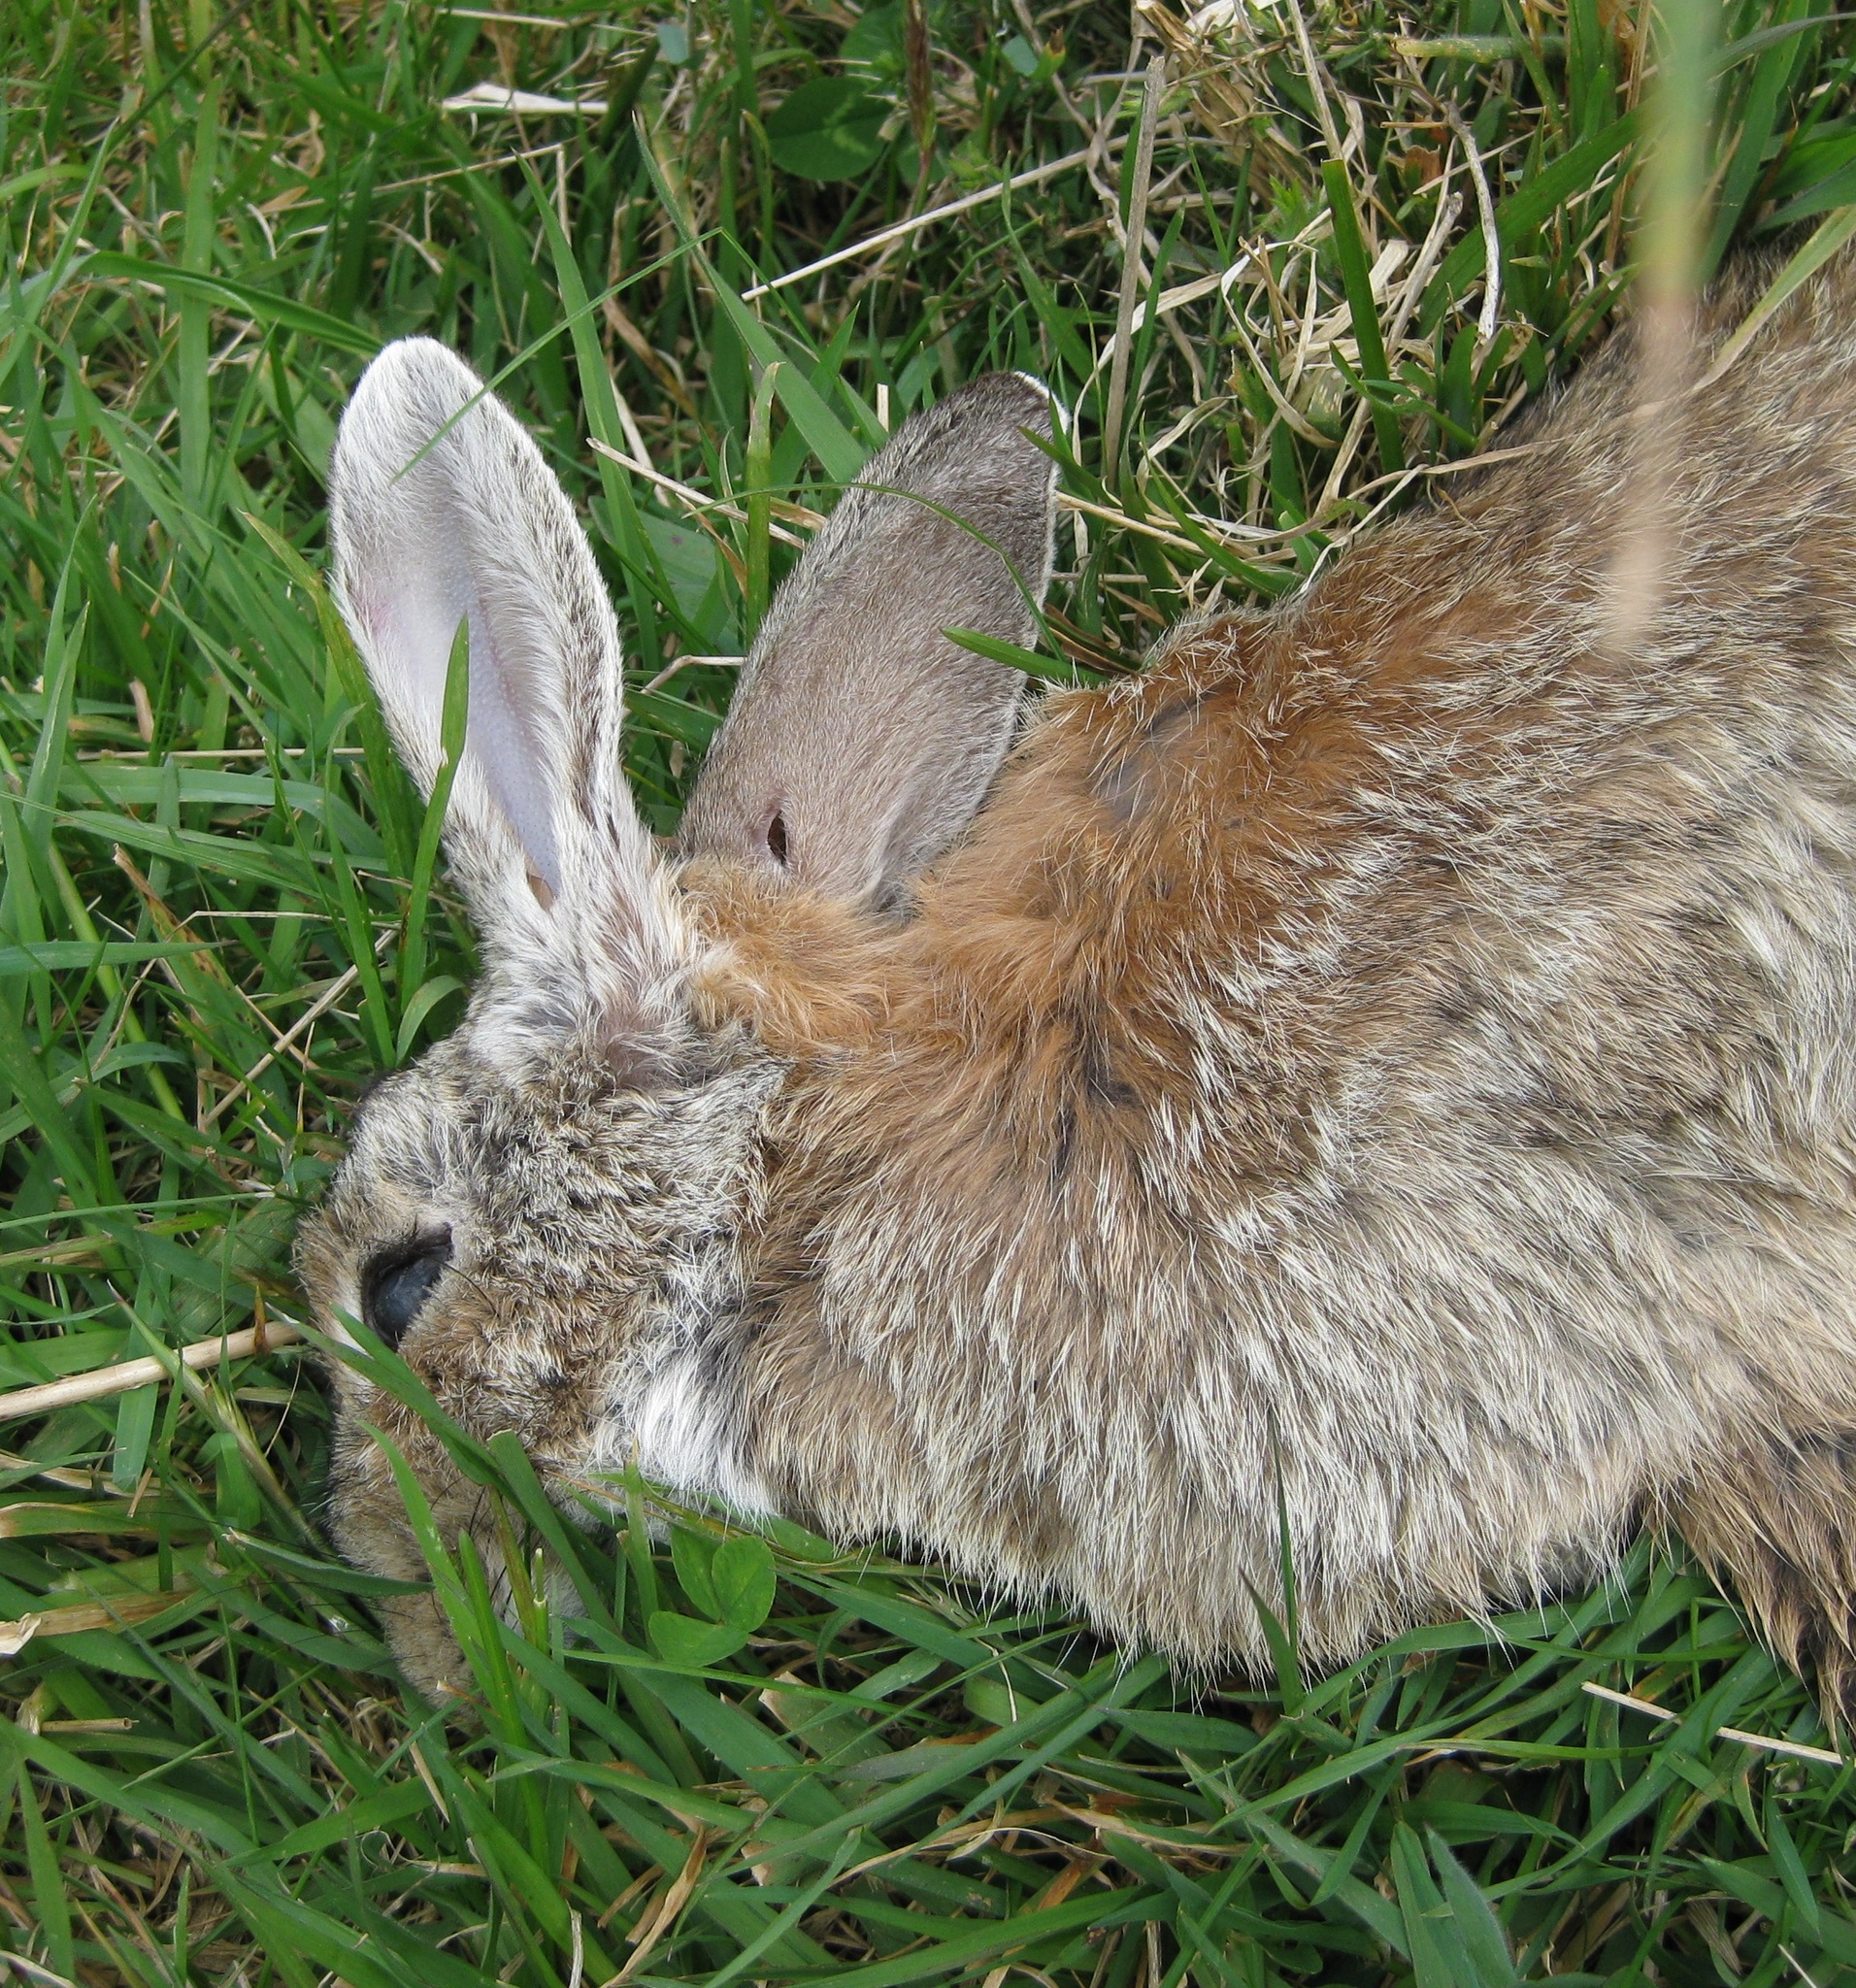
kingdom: Animalia
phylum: Chordata
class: Mammalia
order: Lagomorpha
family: Leporidae
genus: Oryctolagus
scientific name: Oryctolagus cuniculus
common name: European rabbit
